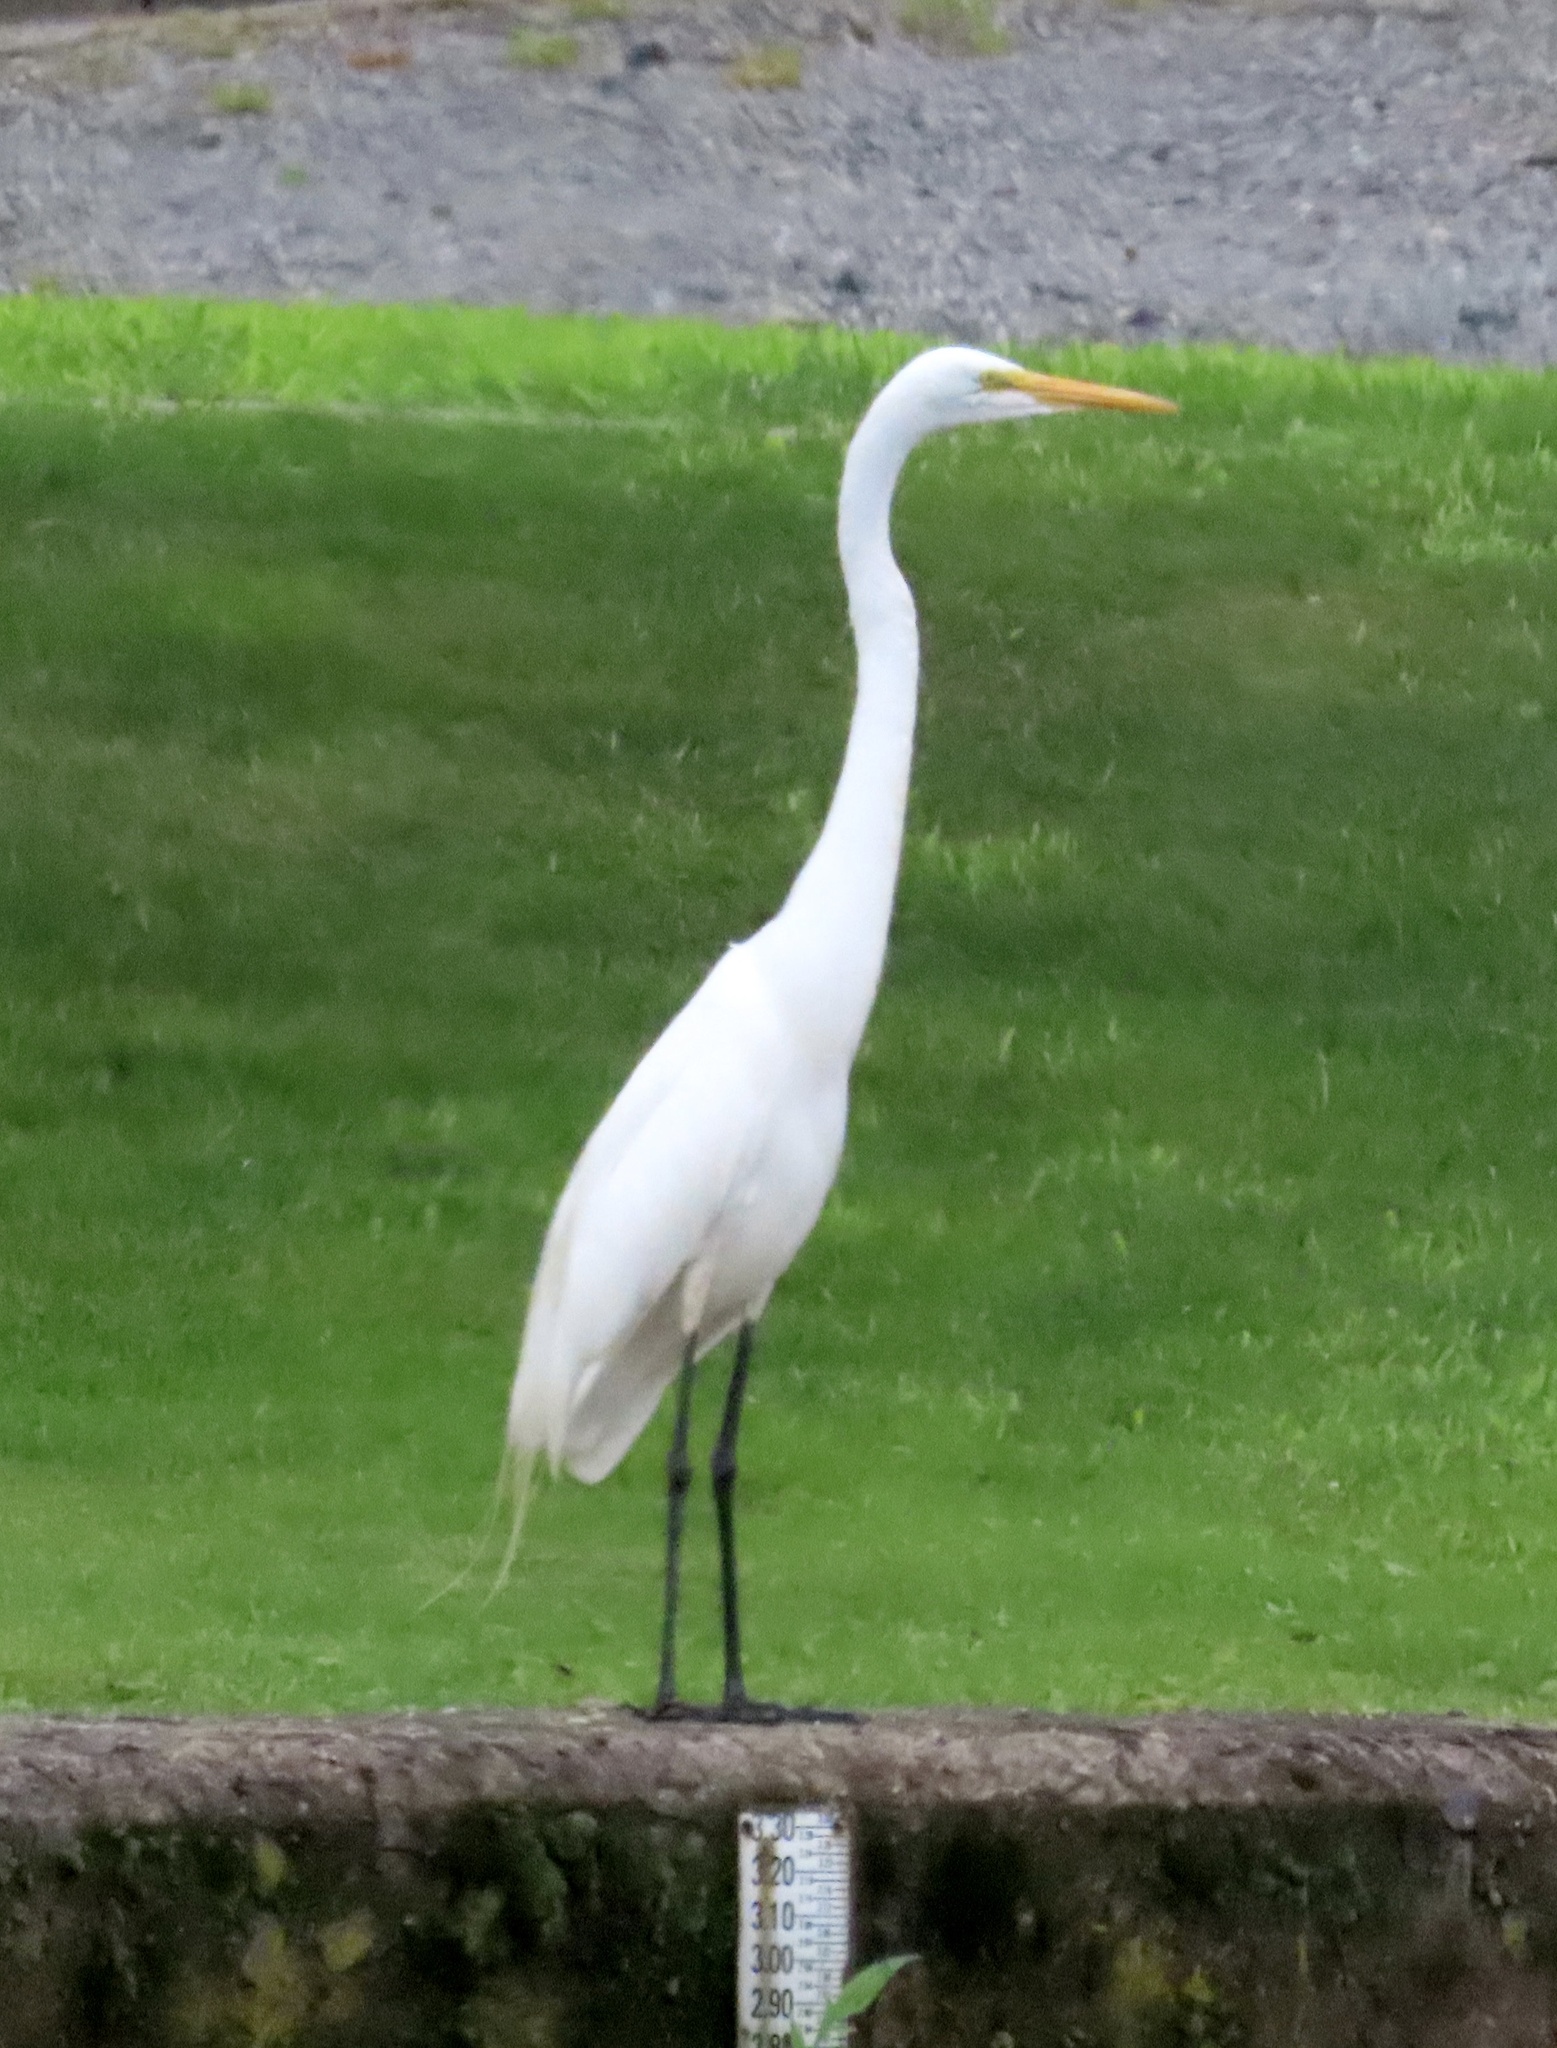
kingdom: Animalia
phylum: Chordata
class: Aves
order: Pelecaniformes
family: Ardeidae
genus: Ardea
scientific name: Ardea alba
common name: Great egret
